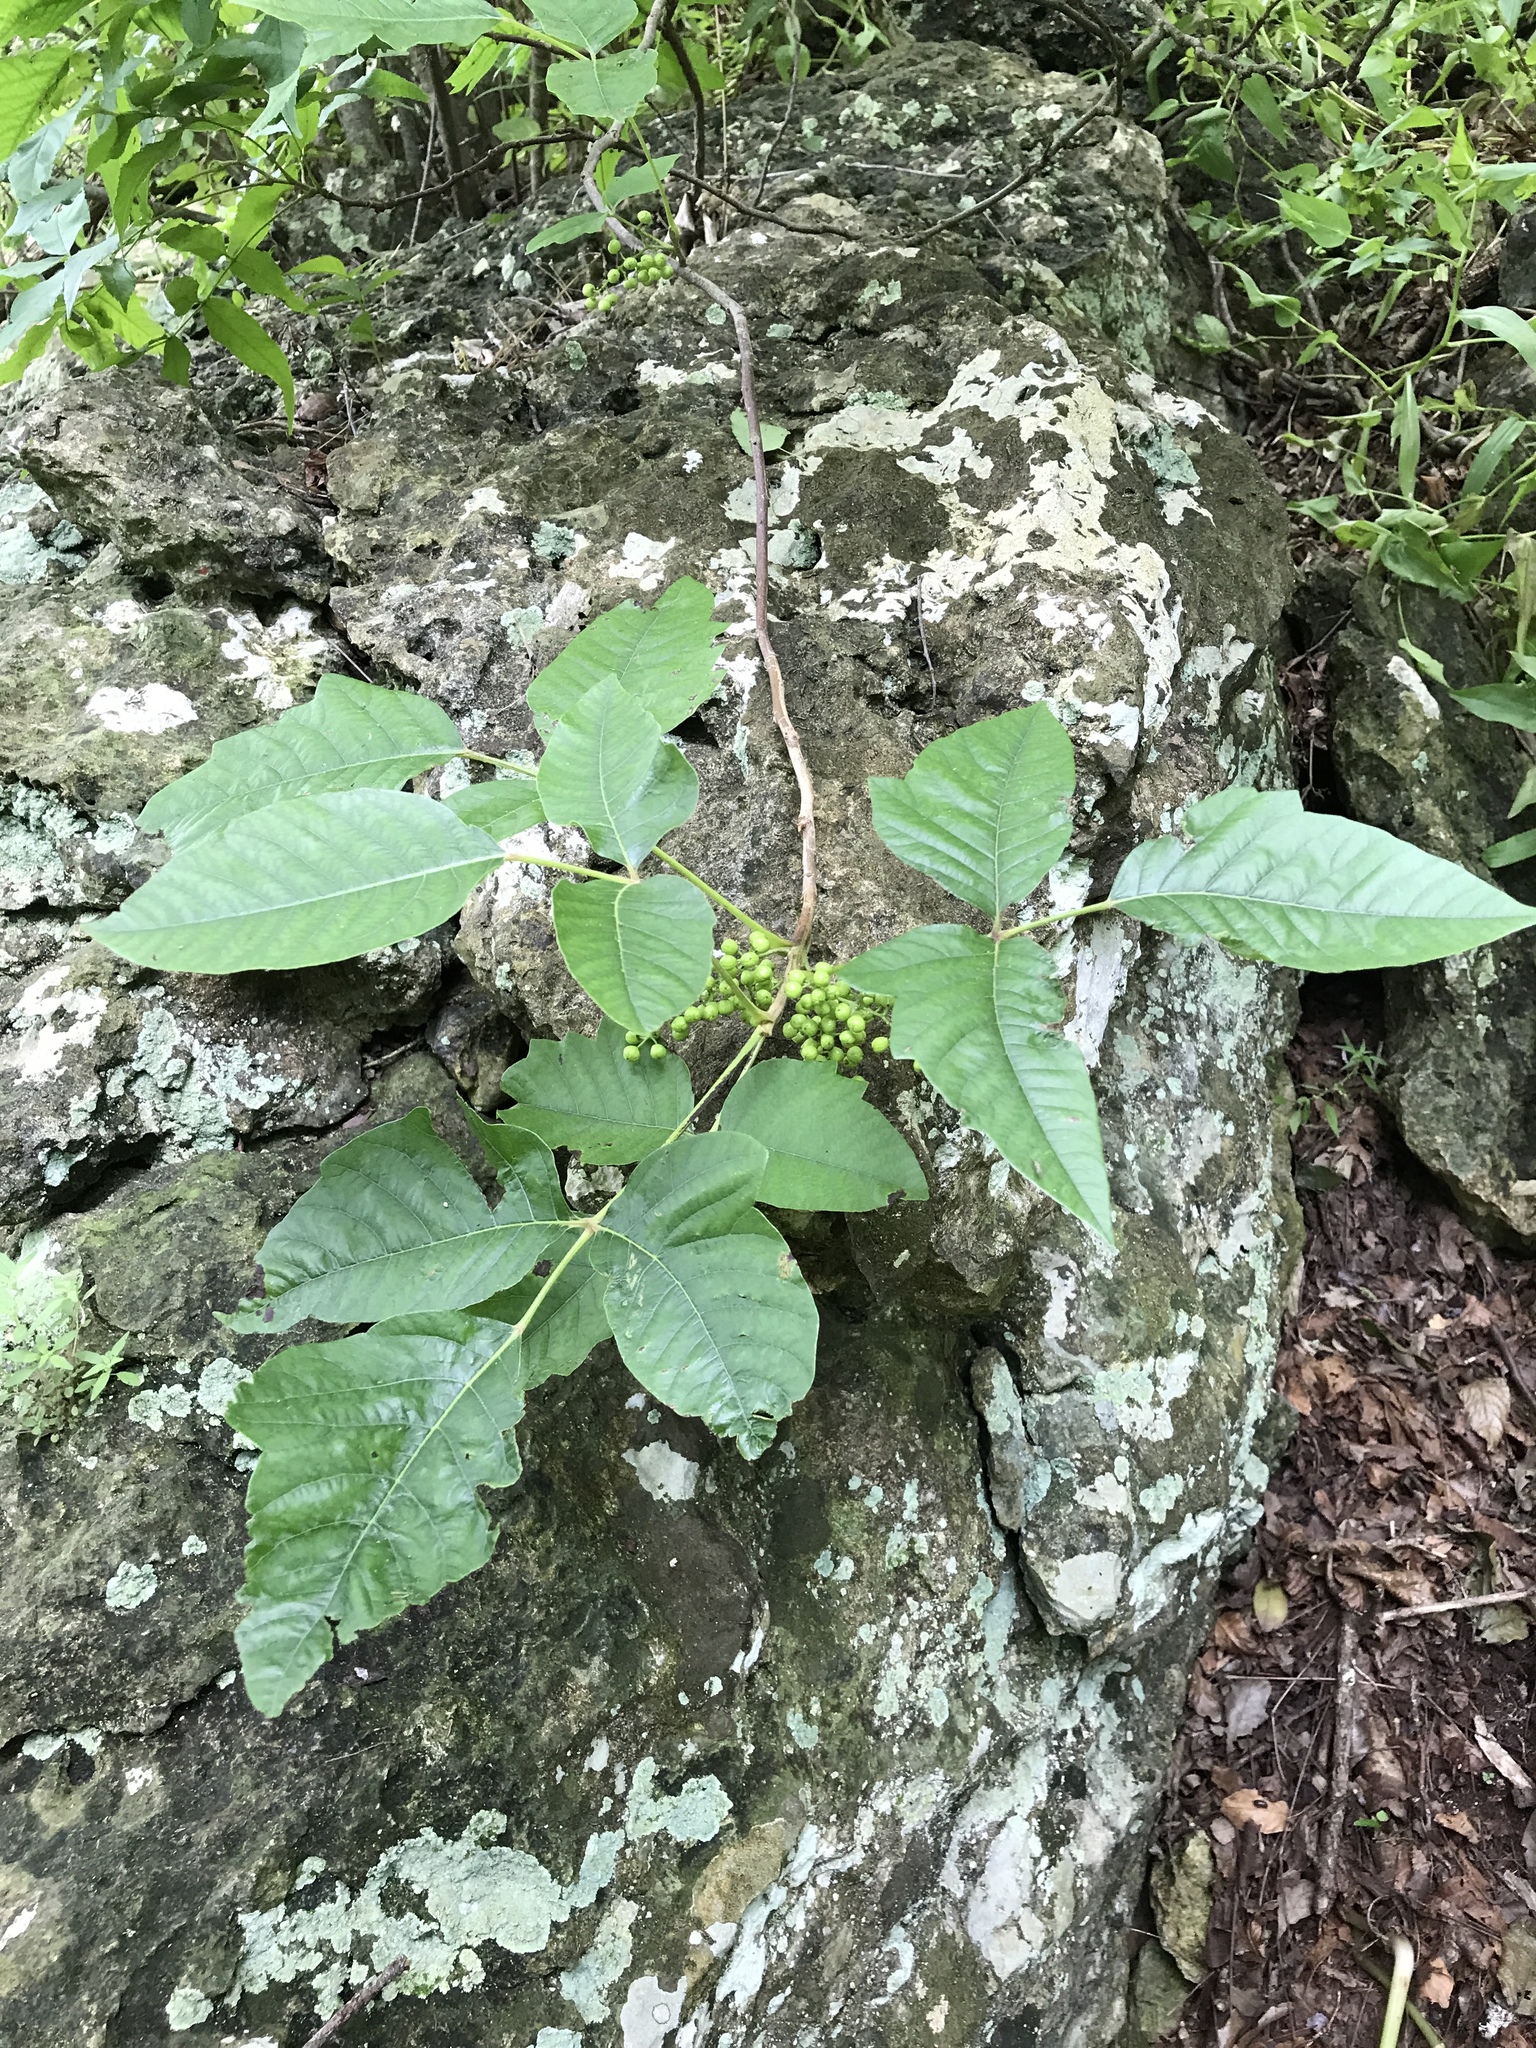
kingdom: Plantae
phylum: Tracheophyta
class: Magnoliopsida
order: Sapindales
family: Anacardiaceae
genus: Toxicodendron
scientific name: Toxicodendron radicans
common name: Poison ivy
